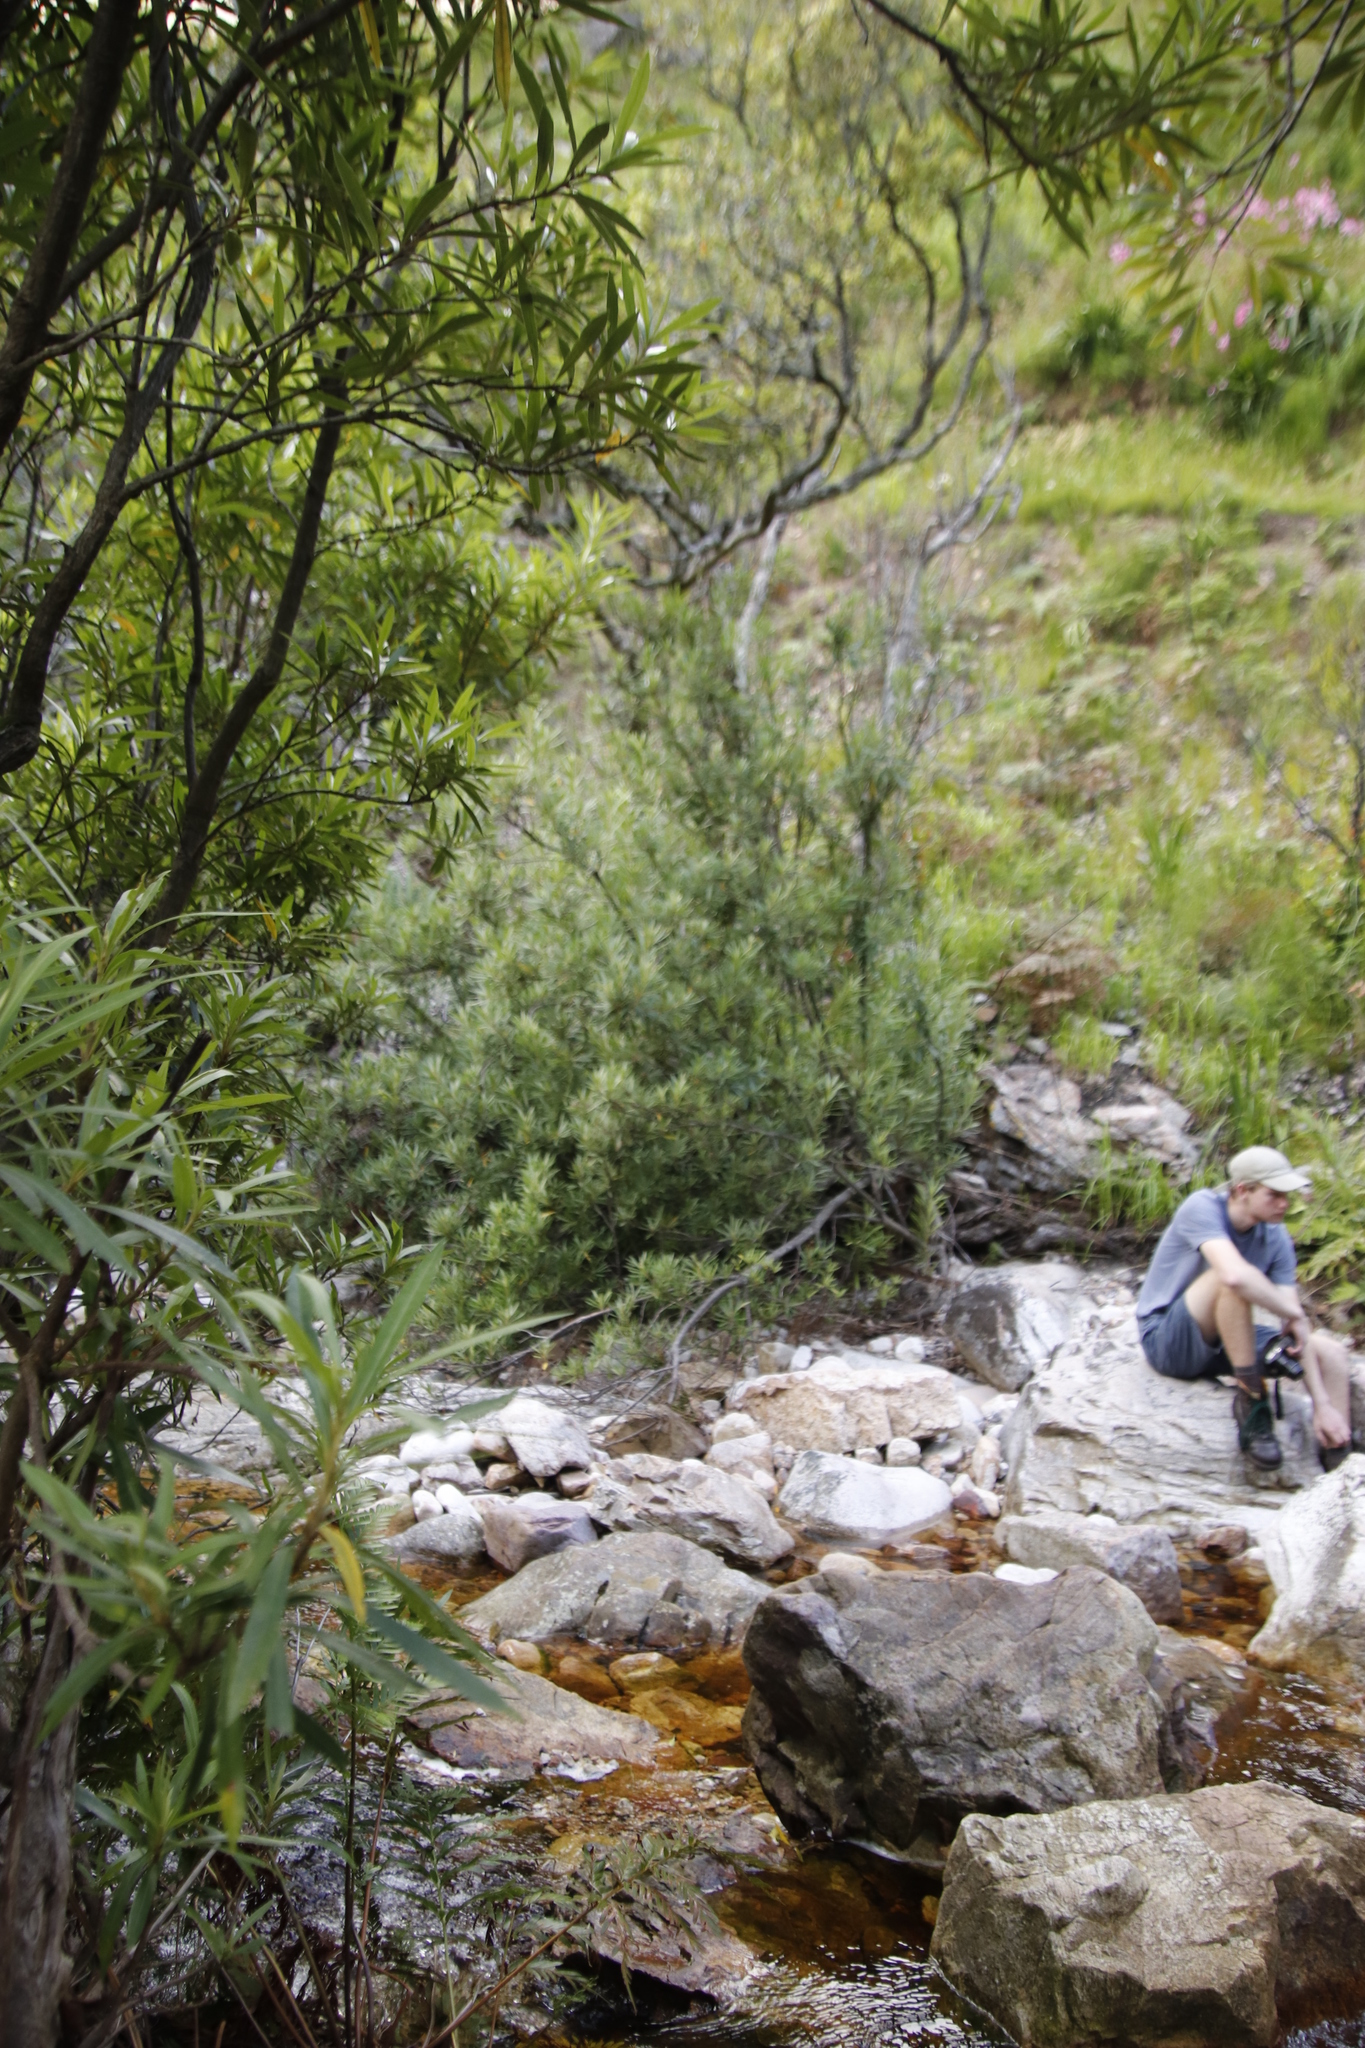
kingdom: Plantae
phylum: Tracheophyta
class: Magnoliopsida
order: Asterales
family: Asteraceae
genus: Brachylaena
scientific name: Brachylaena neriifolia
